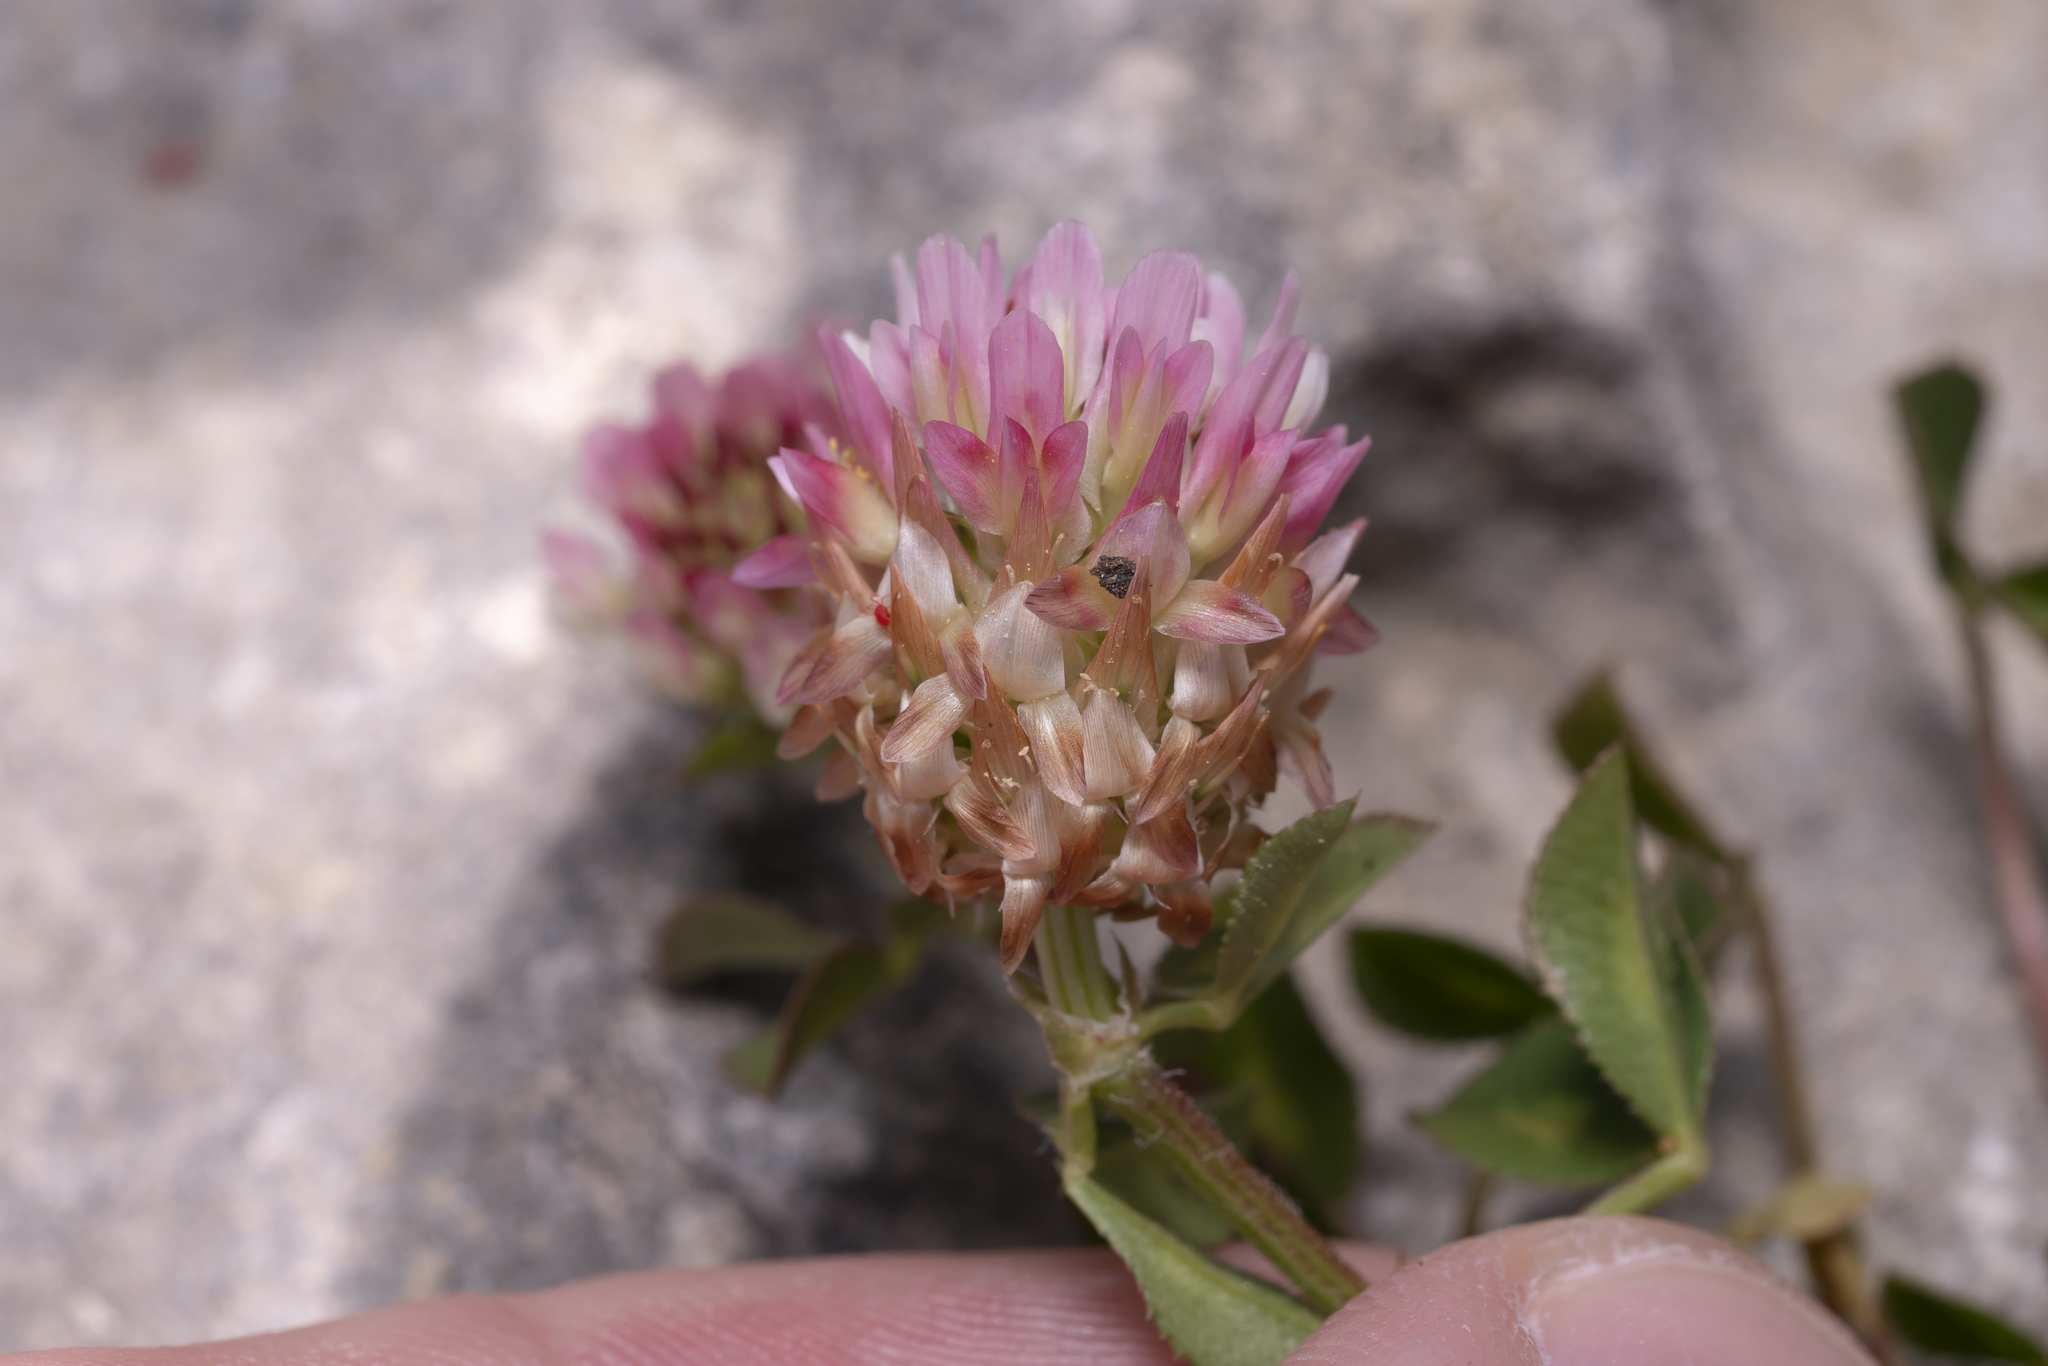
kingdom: Plantae
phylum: Tracheophyta
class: Magnoliopsida
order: Fabales
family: Fabaceae
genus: Trifolium
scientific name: Trifolium argutum
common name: Sharp-tooth clover
